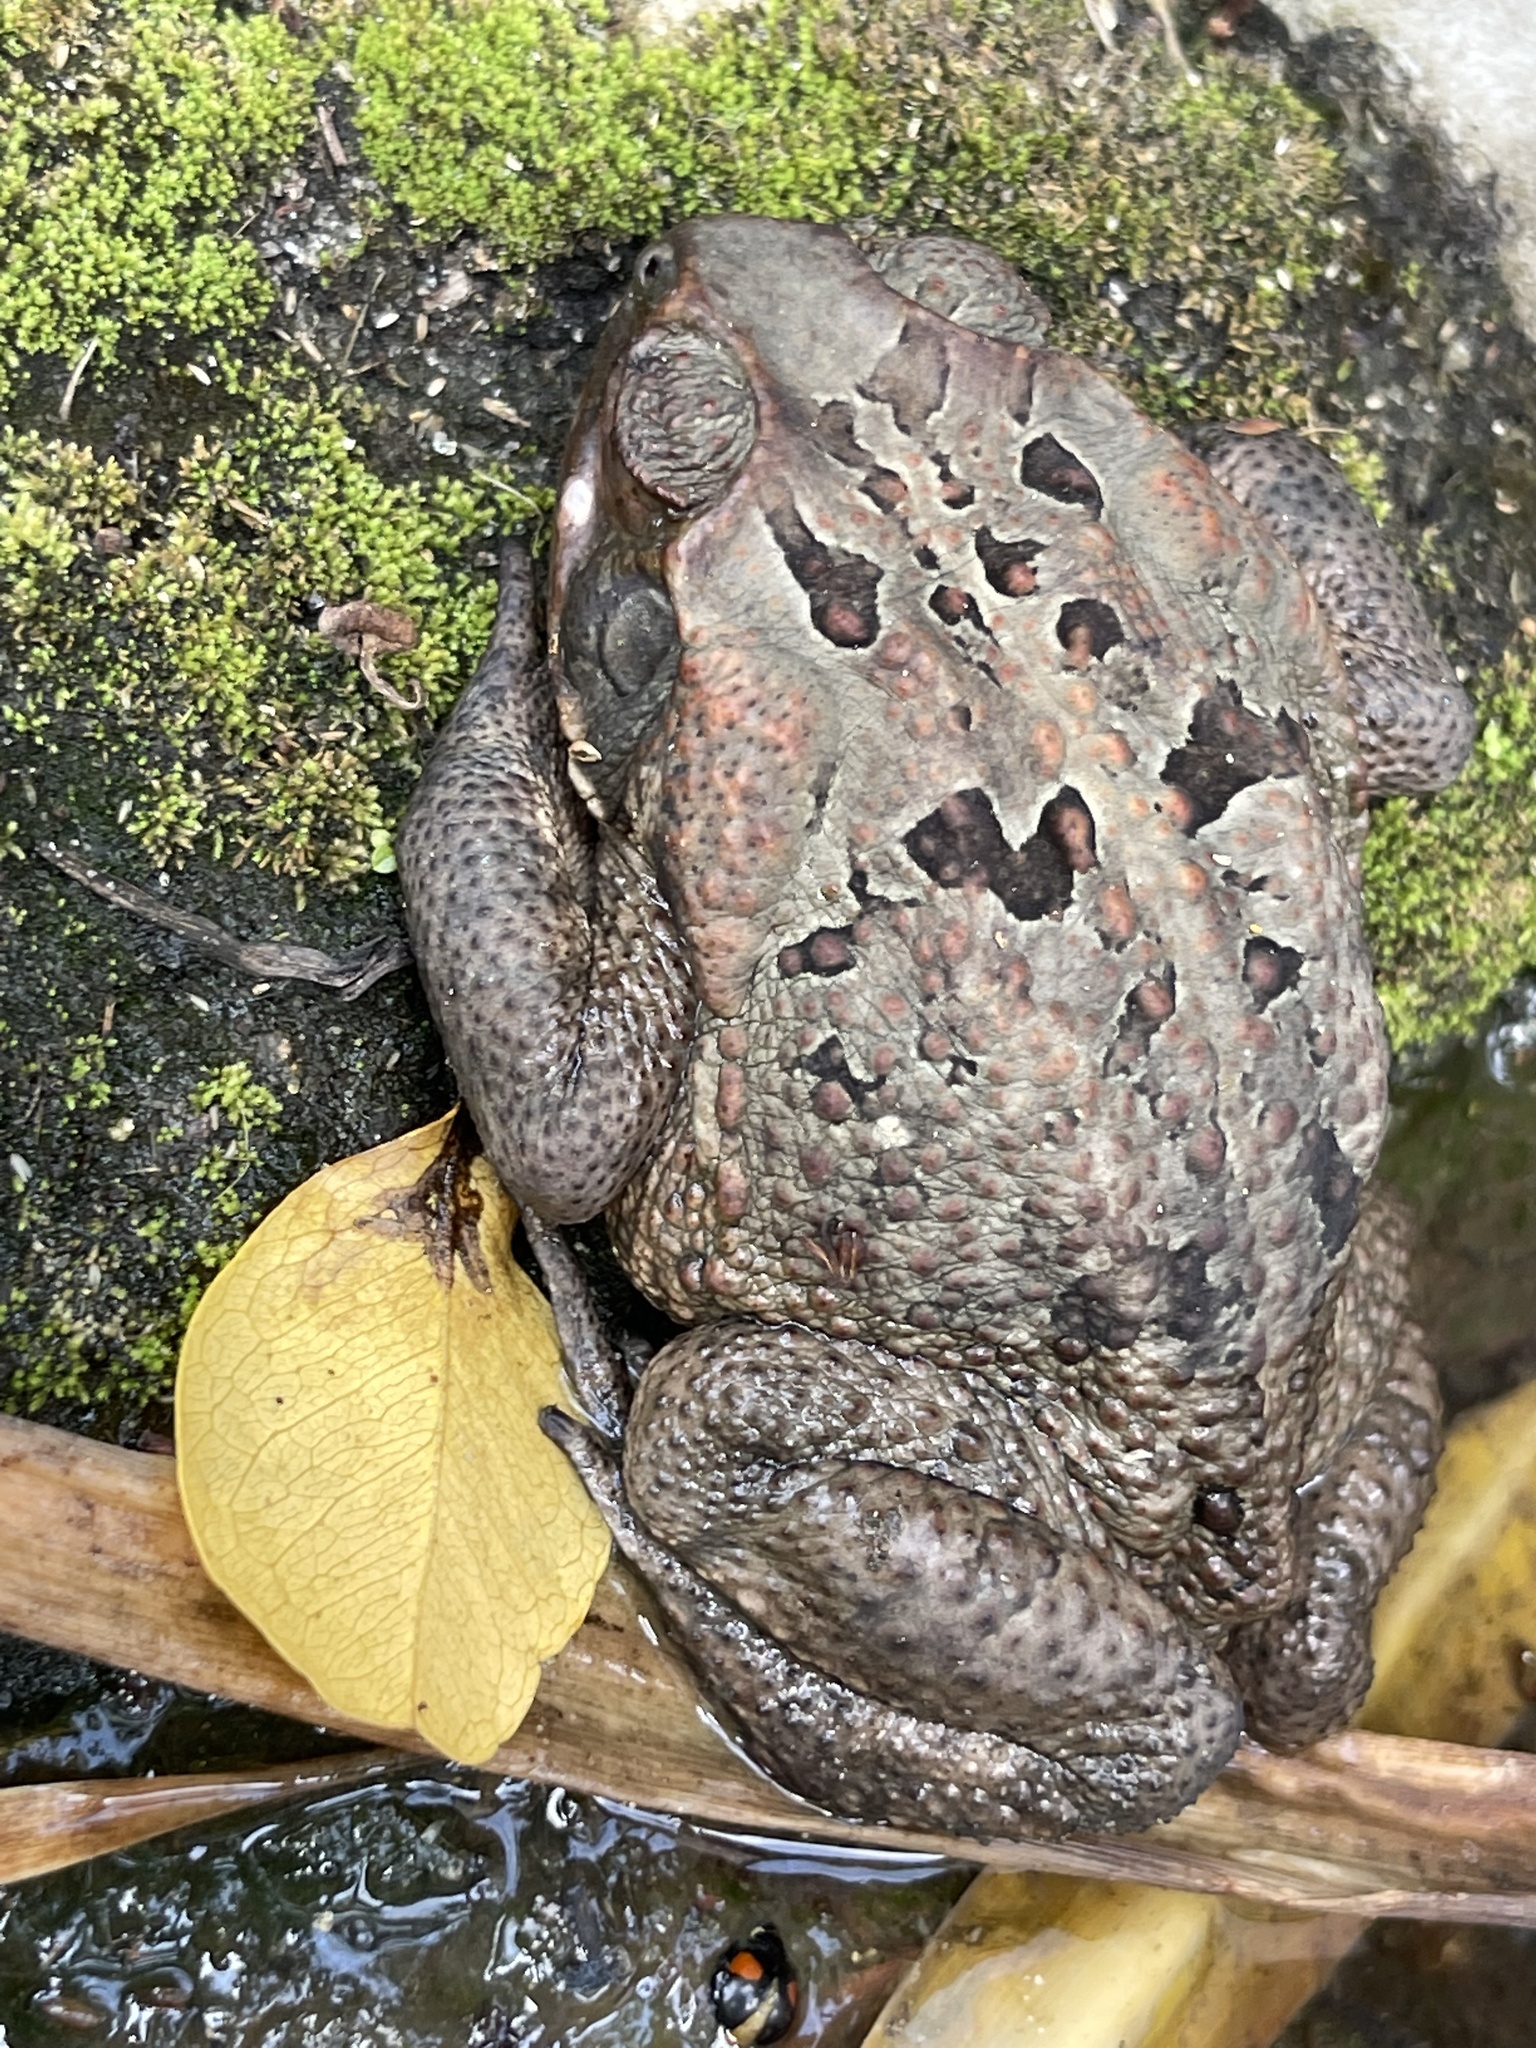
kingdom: Animalia
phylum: Chordata
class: Amphibia
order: Anura
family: Bufonidae
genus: Rhinella
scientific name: Rhinella marina
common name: Cane toad
